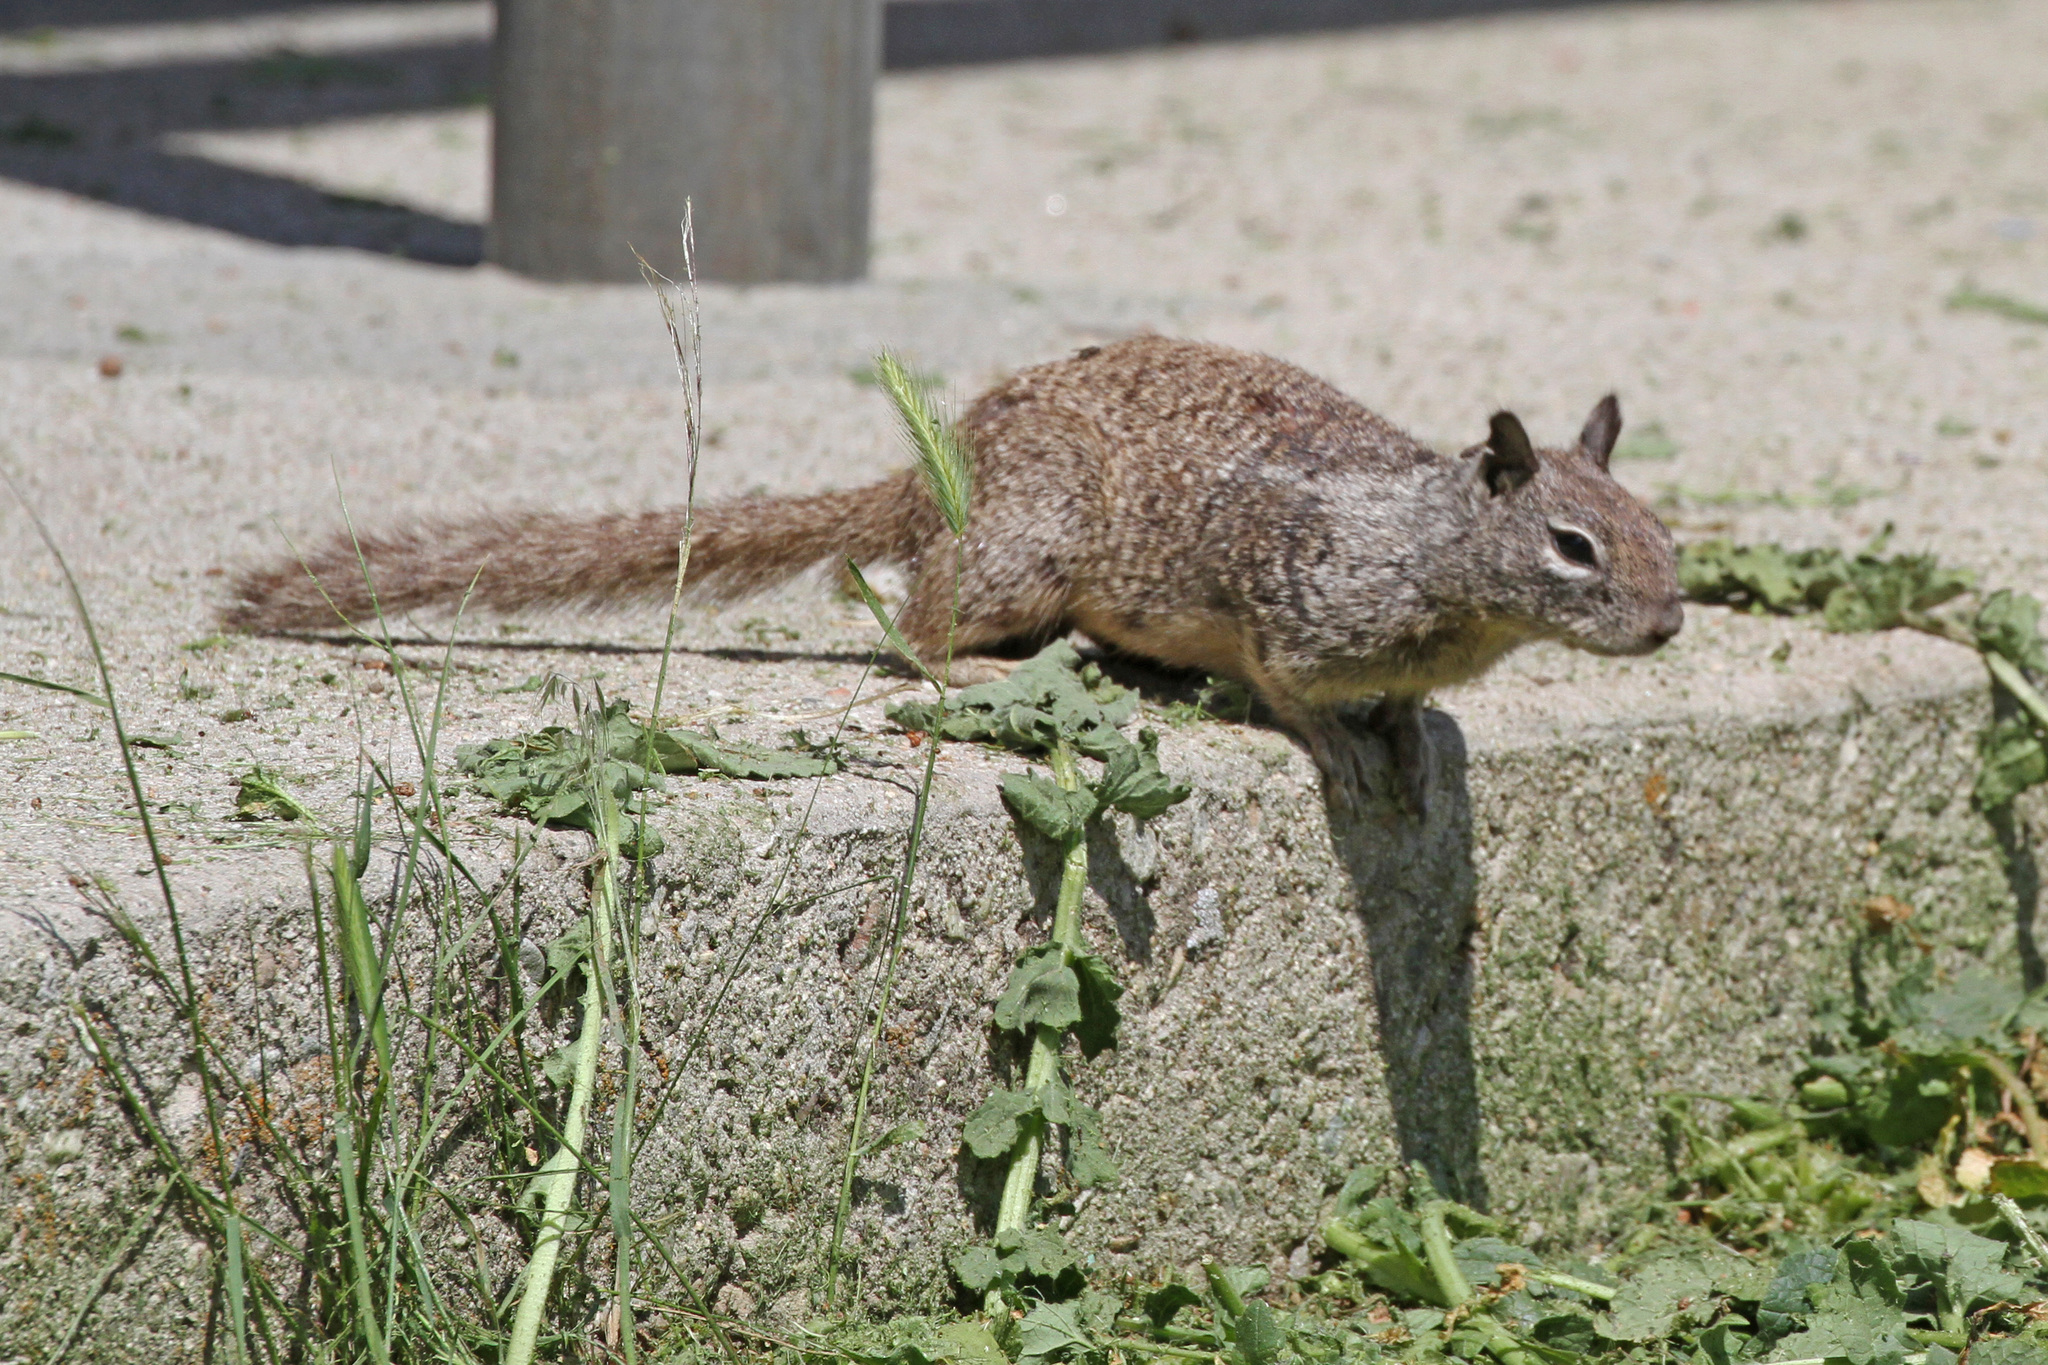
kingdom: Animalia
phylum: Chordata
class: Mammalia
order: Rodentia
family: Sciuridae
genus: Otospermophilus
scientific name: Otospermophilus beecheyi
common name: California ground squirrel
